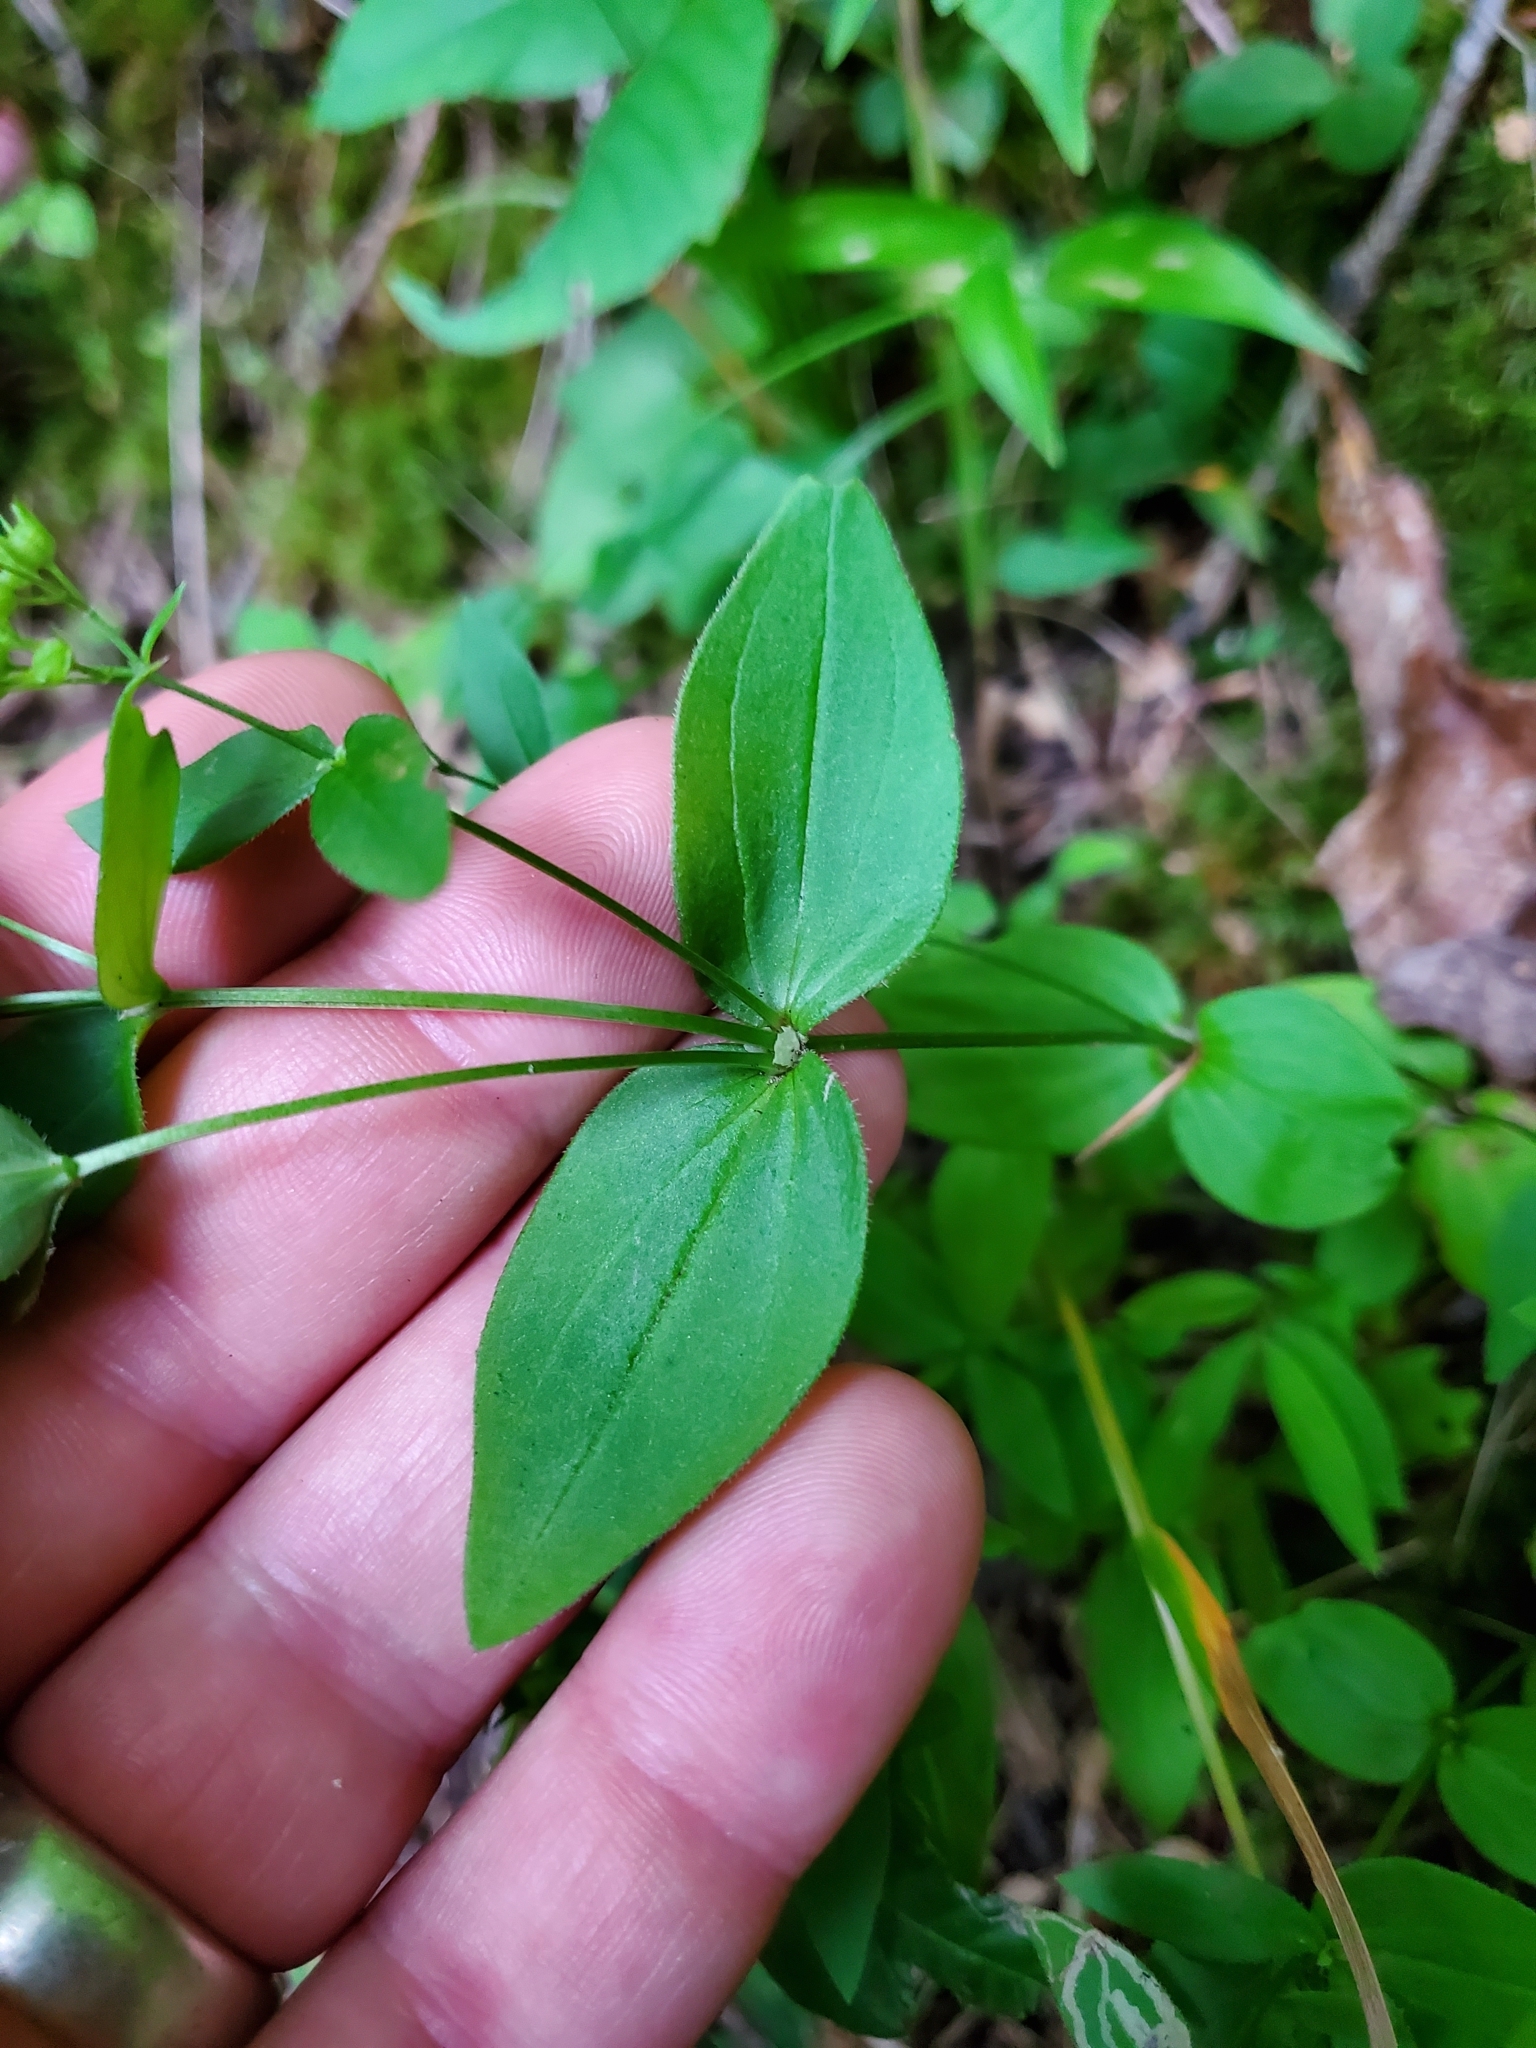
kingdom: Plantae
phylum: Tracheophyta
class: Magnoliopsida
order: Gentianales
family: Rubiaceae
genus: Houstonia
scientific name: Houstonia purpurea
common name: Summer bluet
